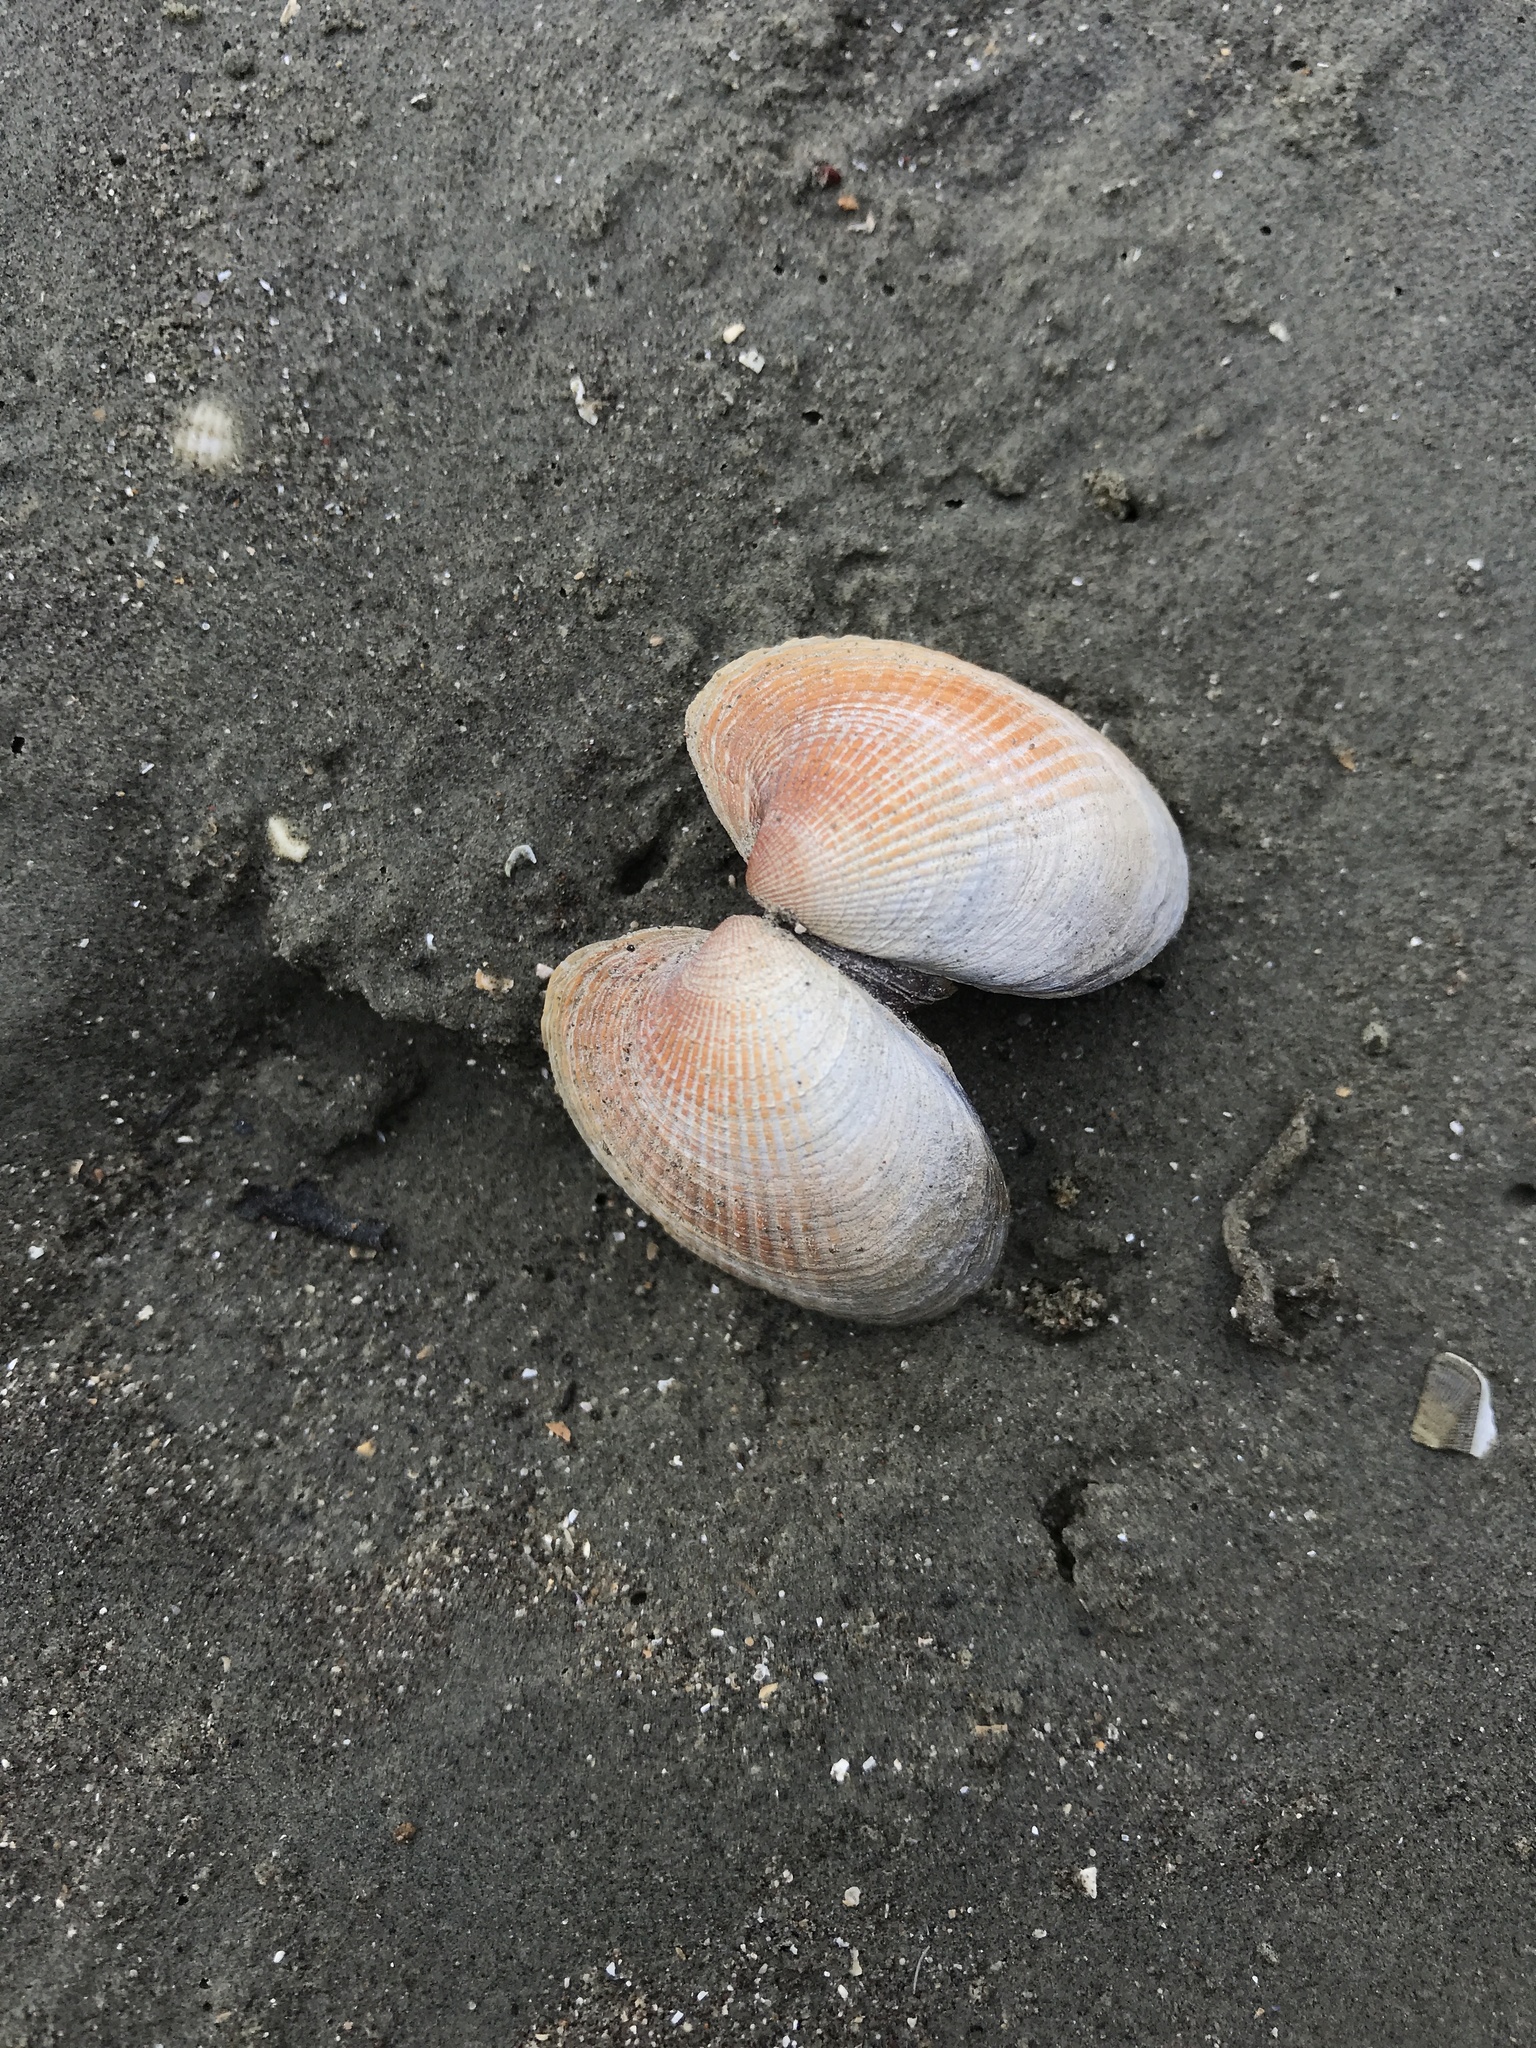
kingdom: Animalia
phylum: Mollusca
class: Bivalvia
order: Venerida
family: Veneridae
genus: Austrovenus
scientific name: Austrovenus stutchburyi
